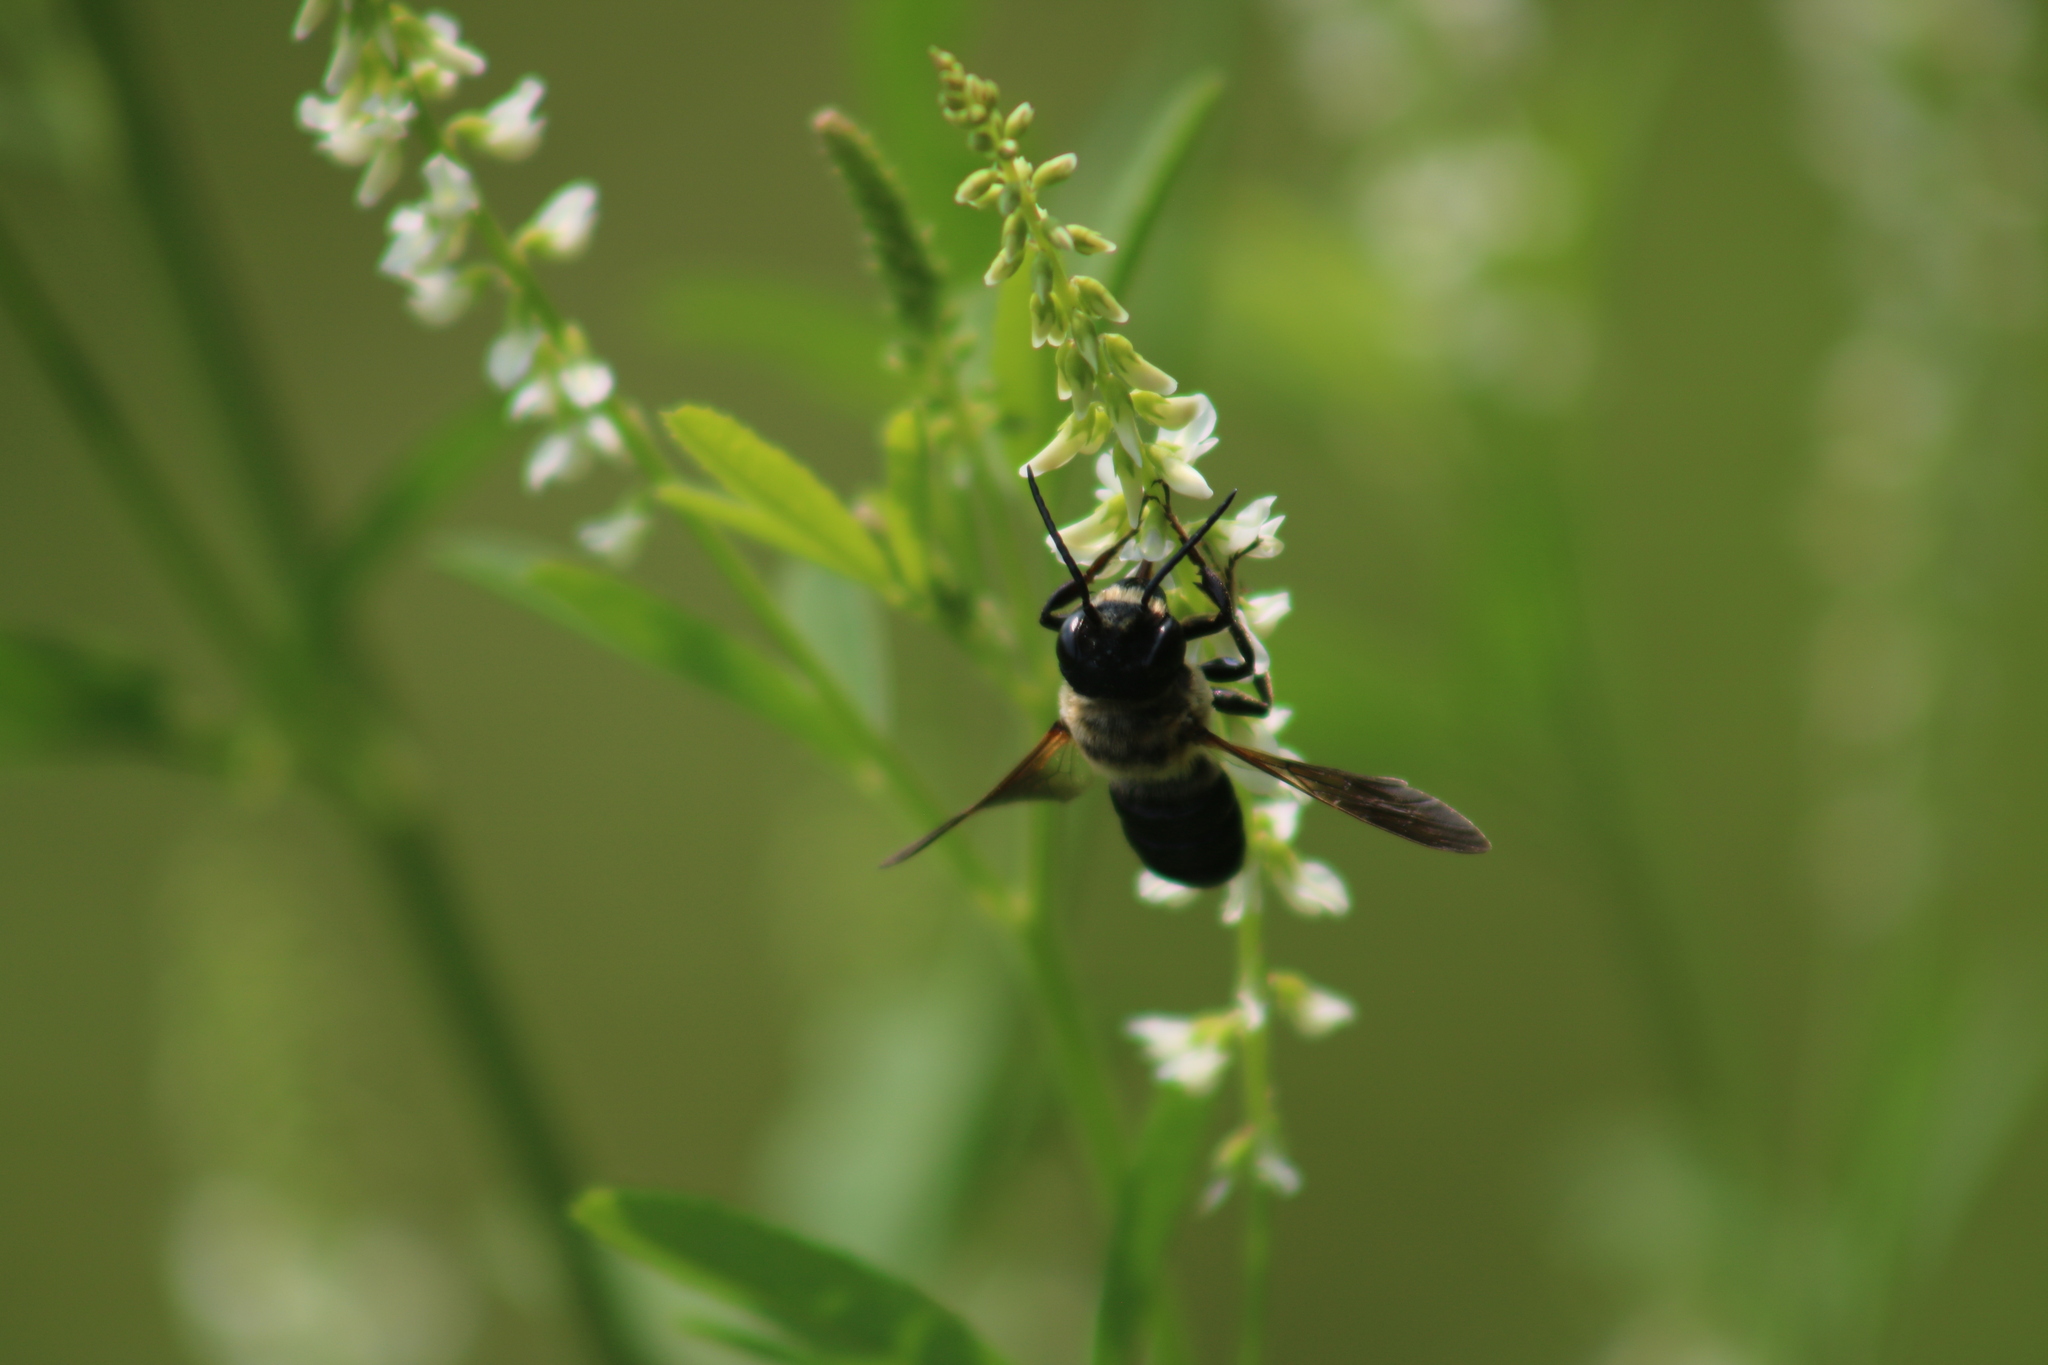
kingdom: Animalia
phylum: Arthropoda
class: Insecta
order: Hymenoptera
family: Megachilidae
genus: Megachile
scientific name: Megachile sculpturalis
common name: Sculptured resin bee
